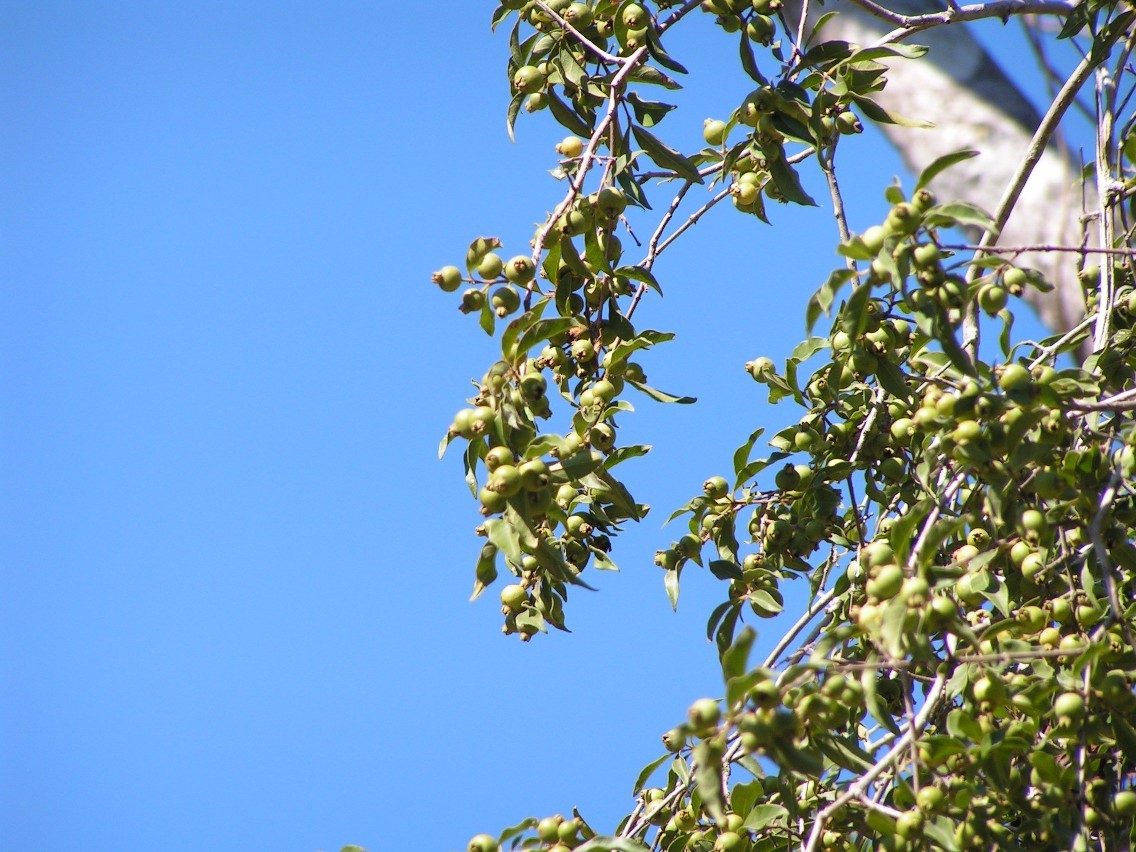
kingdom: Plantae
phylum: Tracheophyta
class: Magnoliopsida
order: Myrtales
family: Myrtaceae
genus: Psidium
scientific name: Psidium sartorianum
